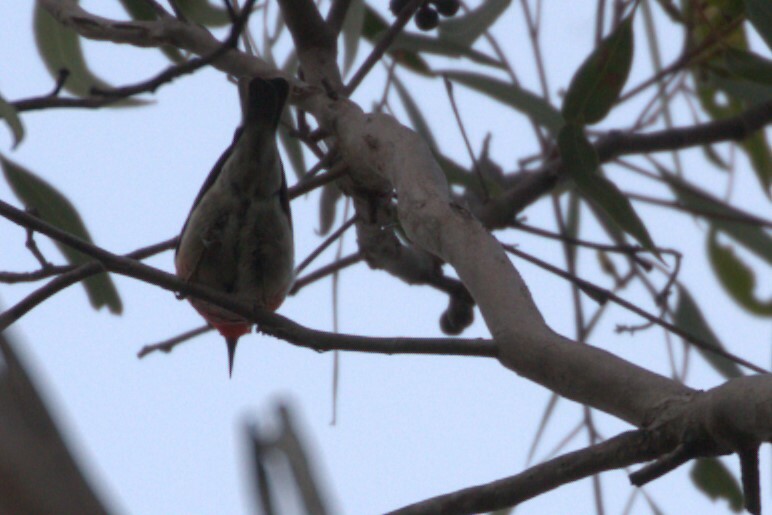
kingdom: Animalia
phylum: Chordata
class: Aves
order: Passeriformes
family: Meliphagidae
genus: Myzomela
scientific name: Myzomela sanguinolenta
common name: Scarlet myzomela
